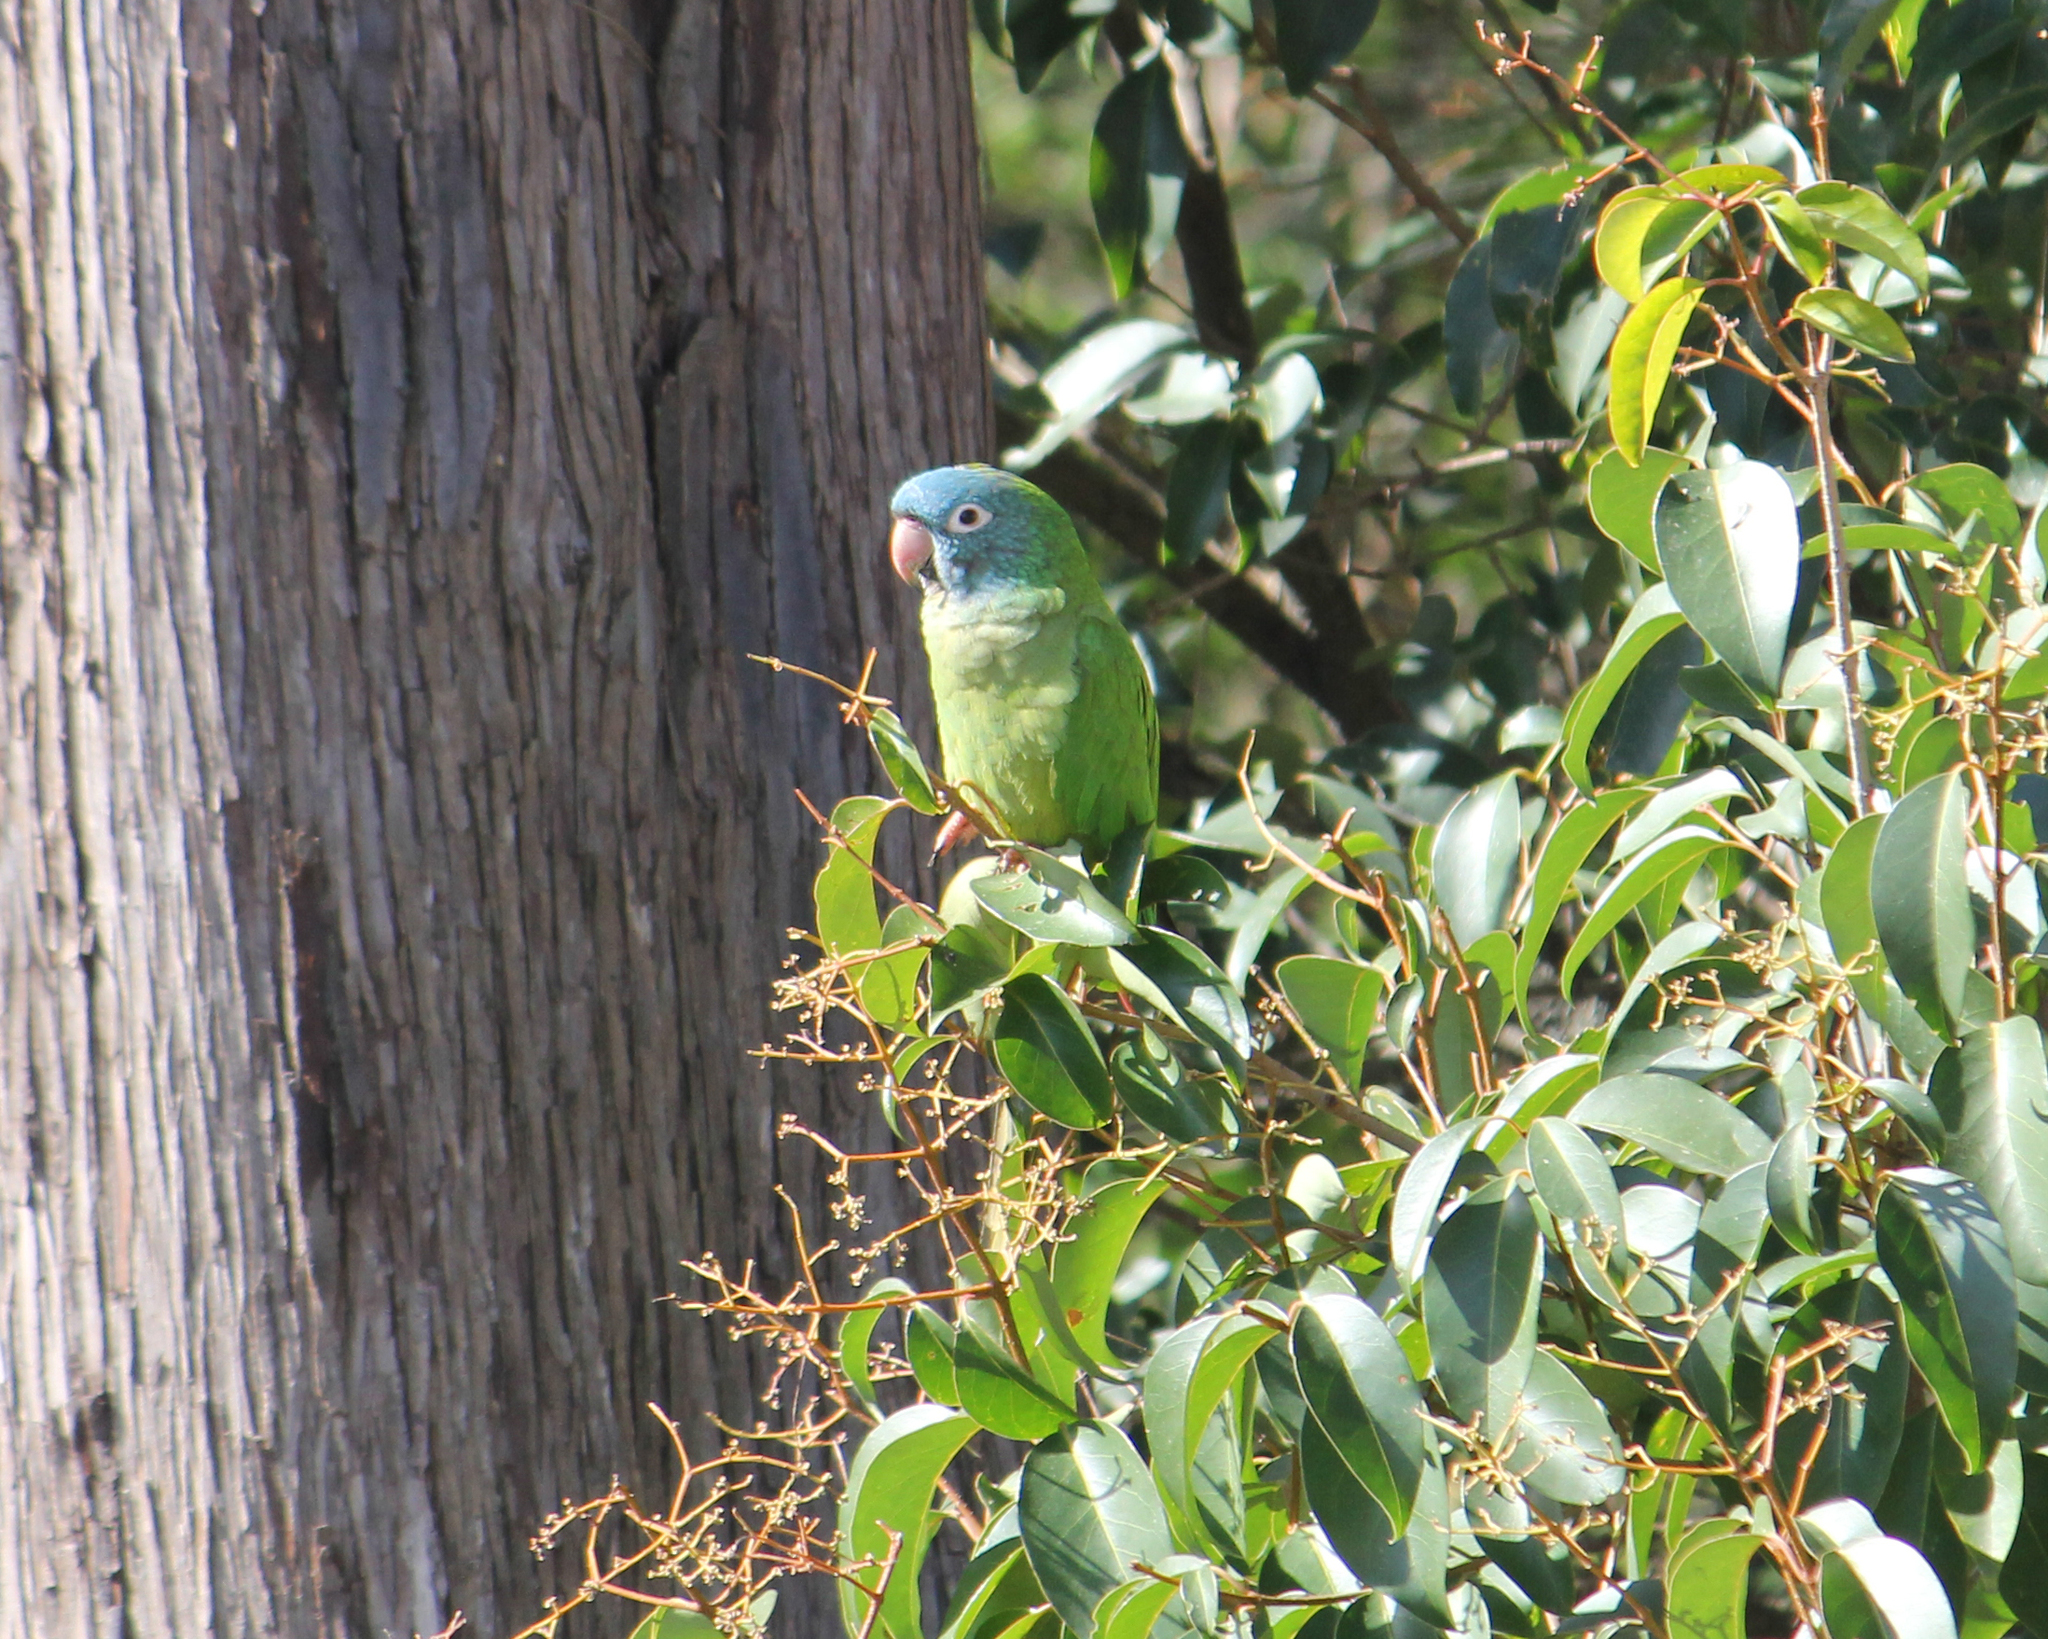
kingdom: Animalia
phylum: Chordata
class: Aves
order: Psittaciformes
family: Psittacidae
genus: Aratinga
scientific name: Aratinga acuticaudata
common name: Blue-crowned parakeet
